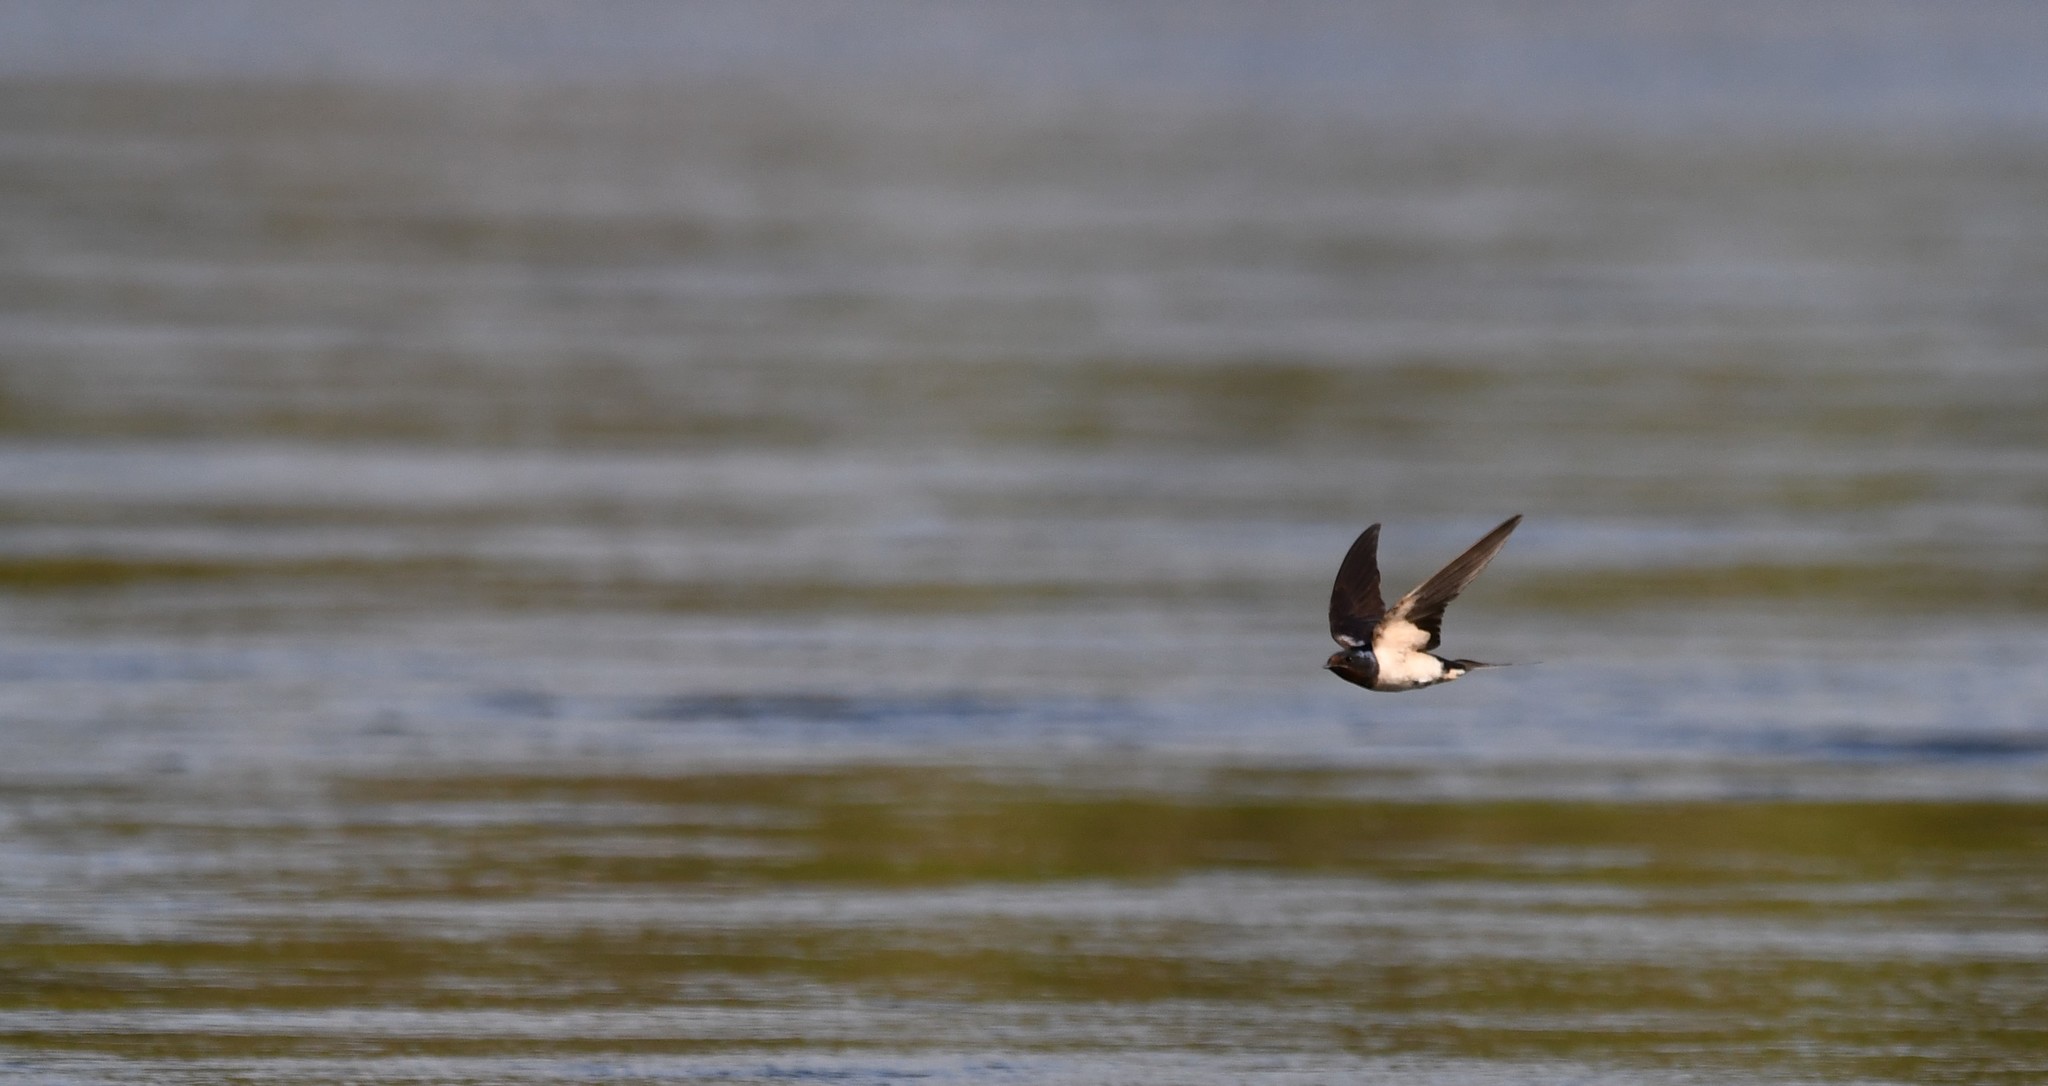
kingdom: Animalia
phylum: Chordata
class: Aves
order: Passeriformes
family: Hirundinidae
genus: Hirundo
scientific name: Hirundo rustica
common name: Barn swallow
